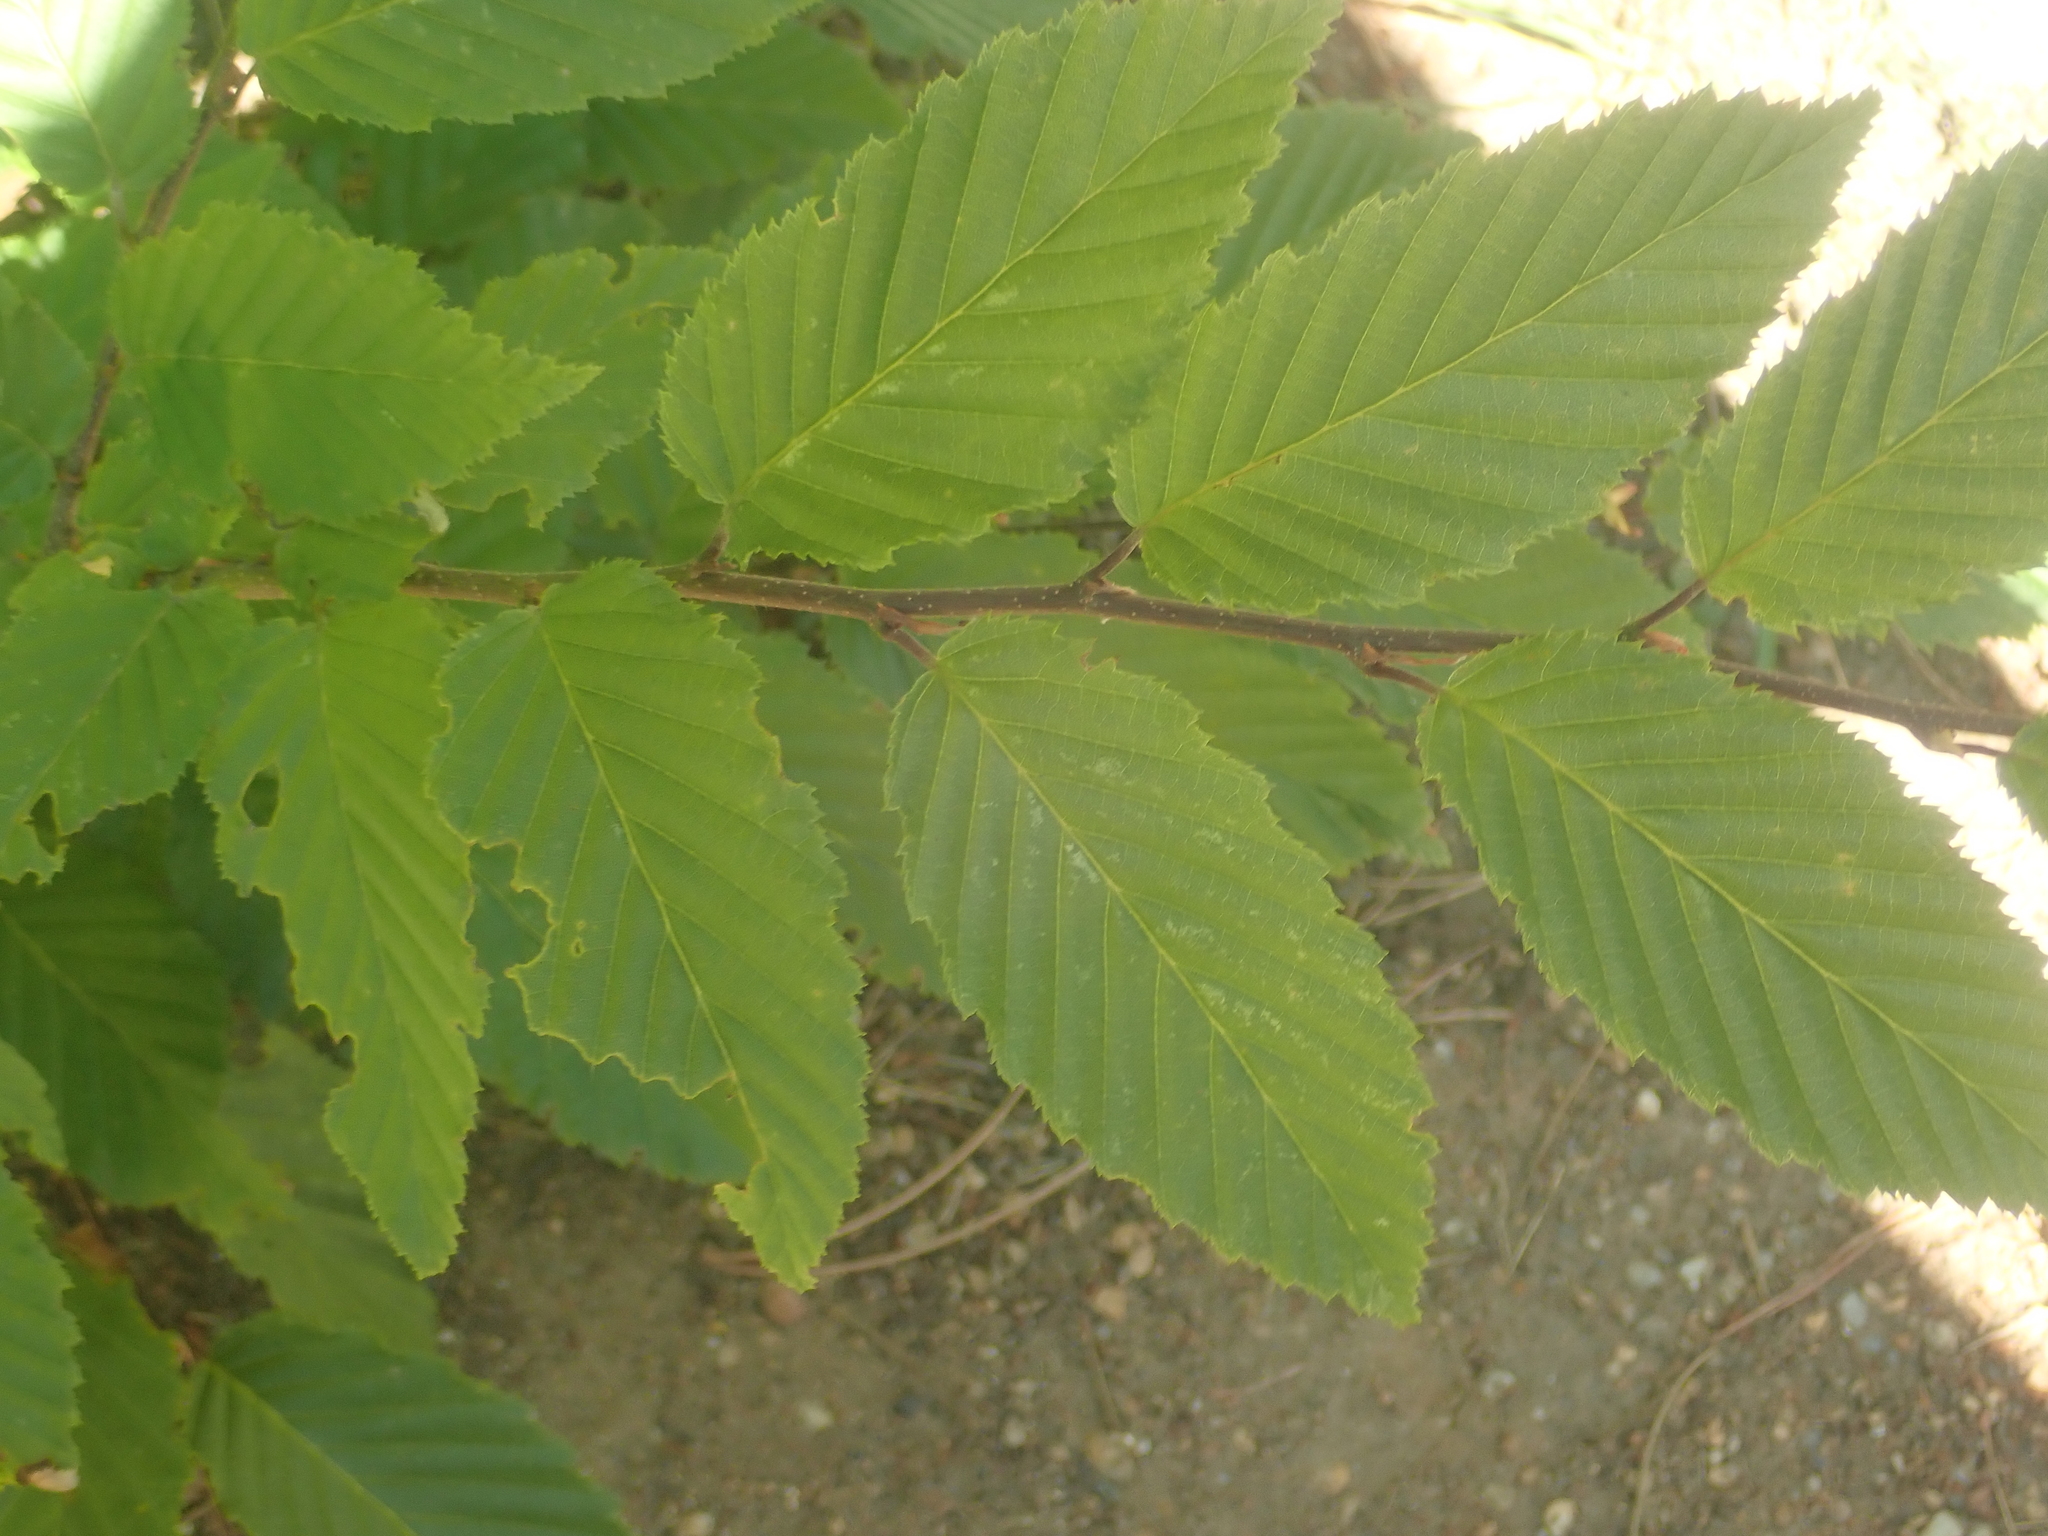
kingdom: Plantae
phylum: Tracheophyta
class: Magnoliopsida
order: Fagales
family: Betulaceae
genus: Carpinus
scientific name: Carpinus betulus
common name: Hornbeam
